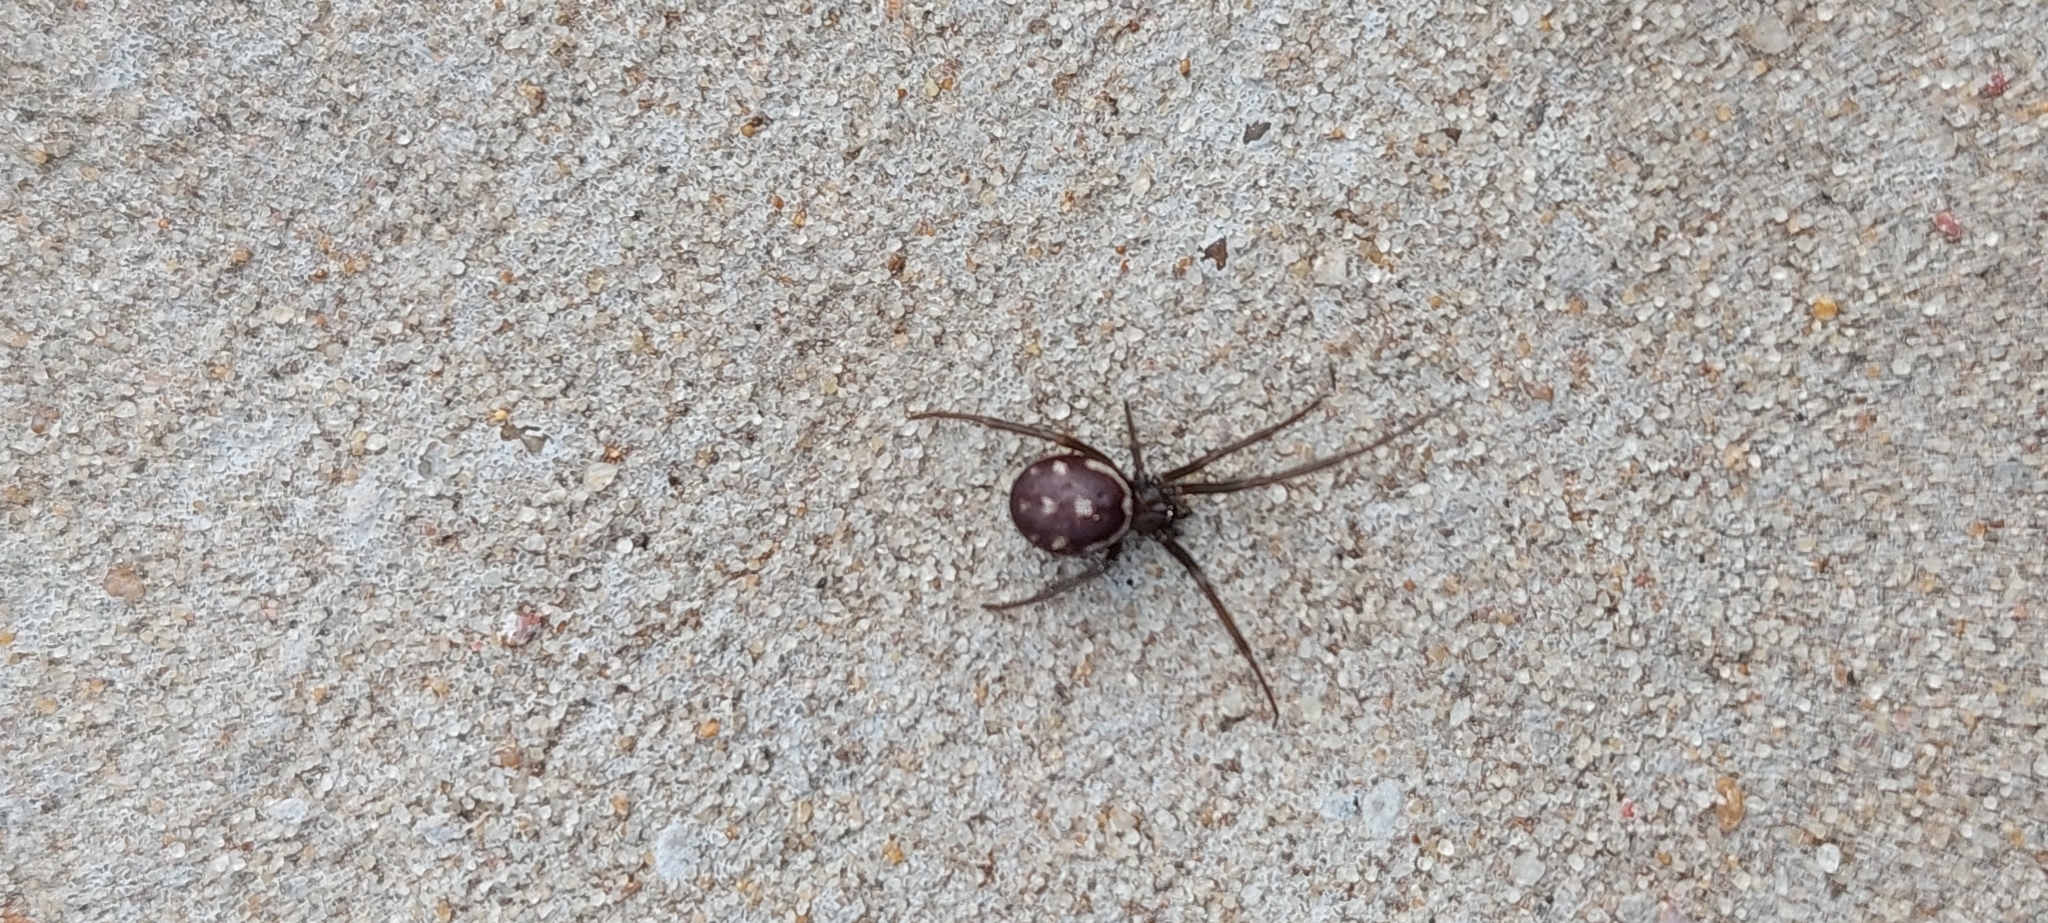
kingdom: Animalia
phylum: Arthropoda
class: Arachnida
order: Araneae
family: Theridiidae
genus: Steatoda
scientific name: Steatoda grossa
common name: False black widow
